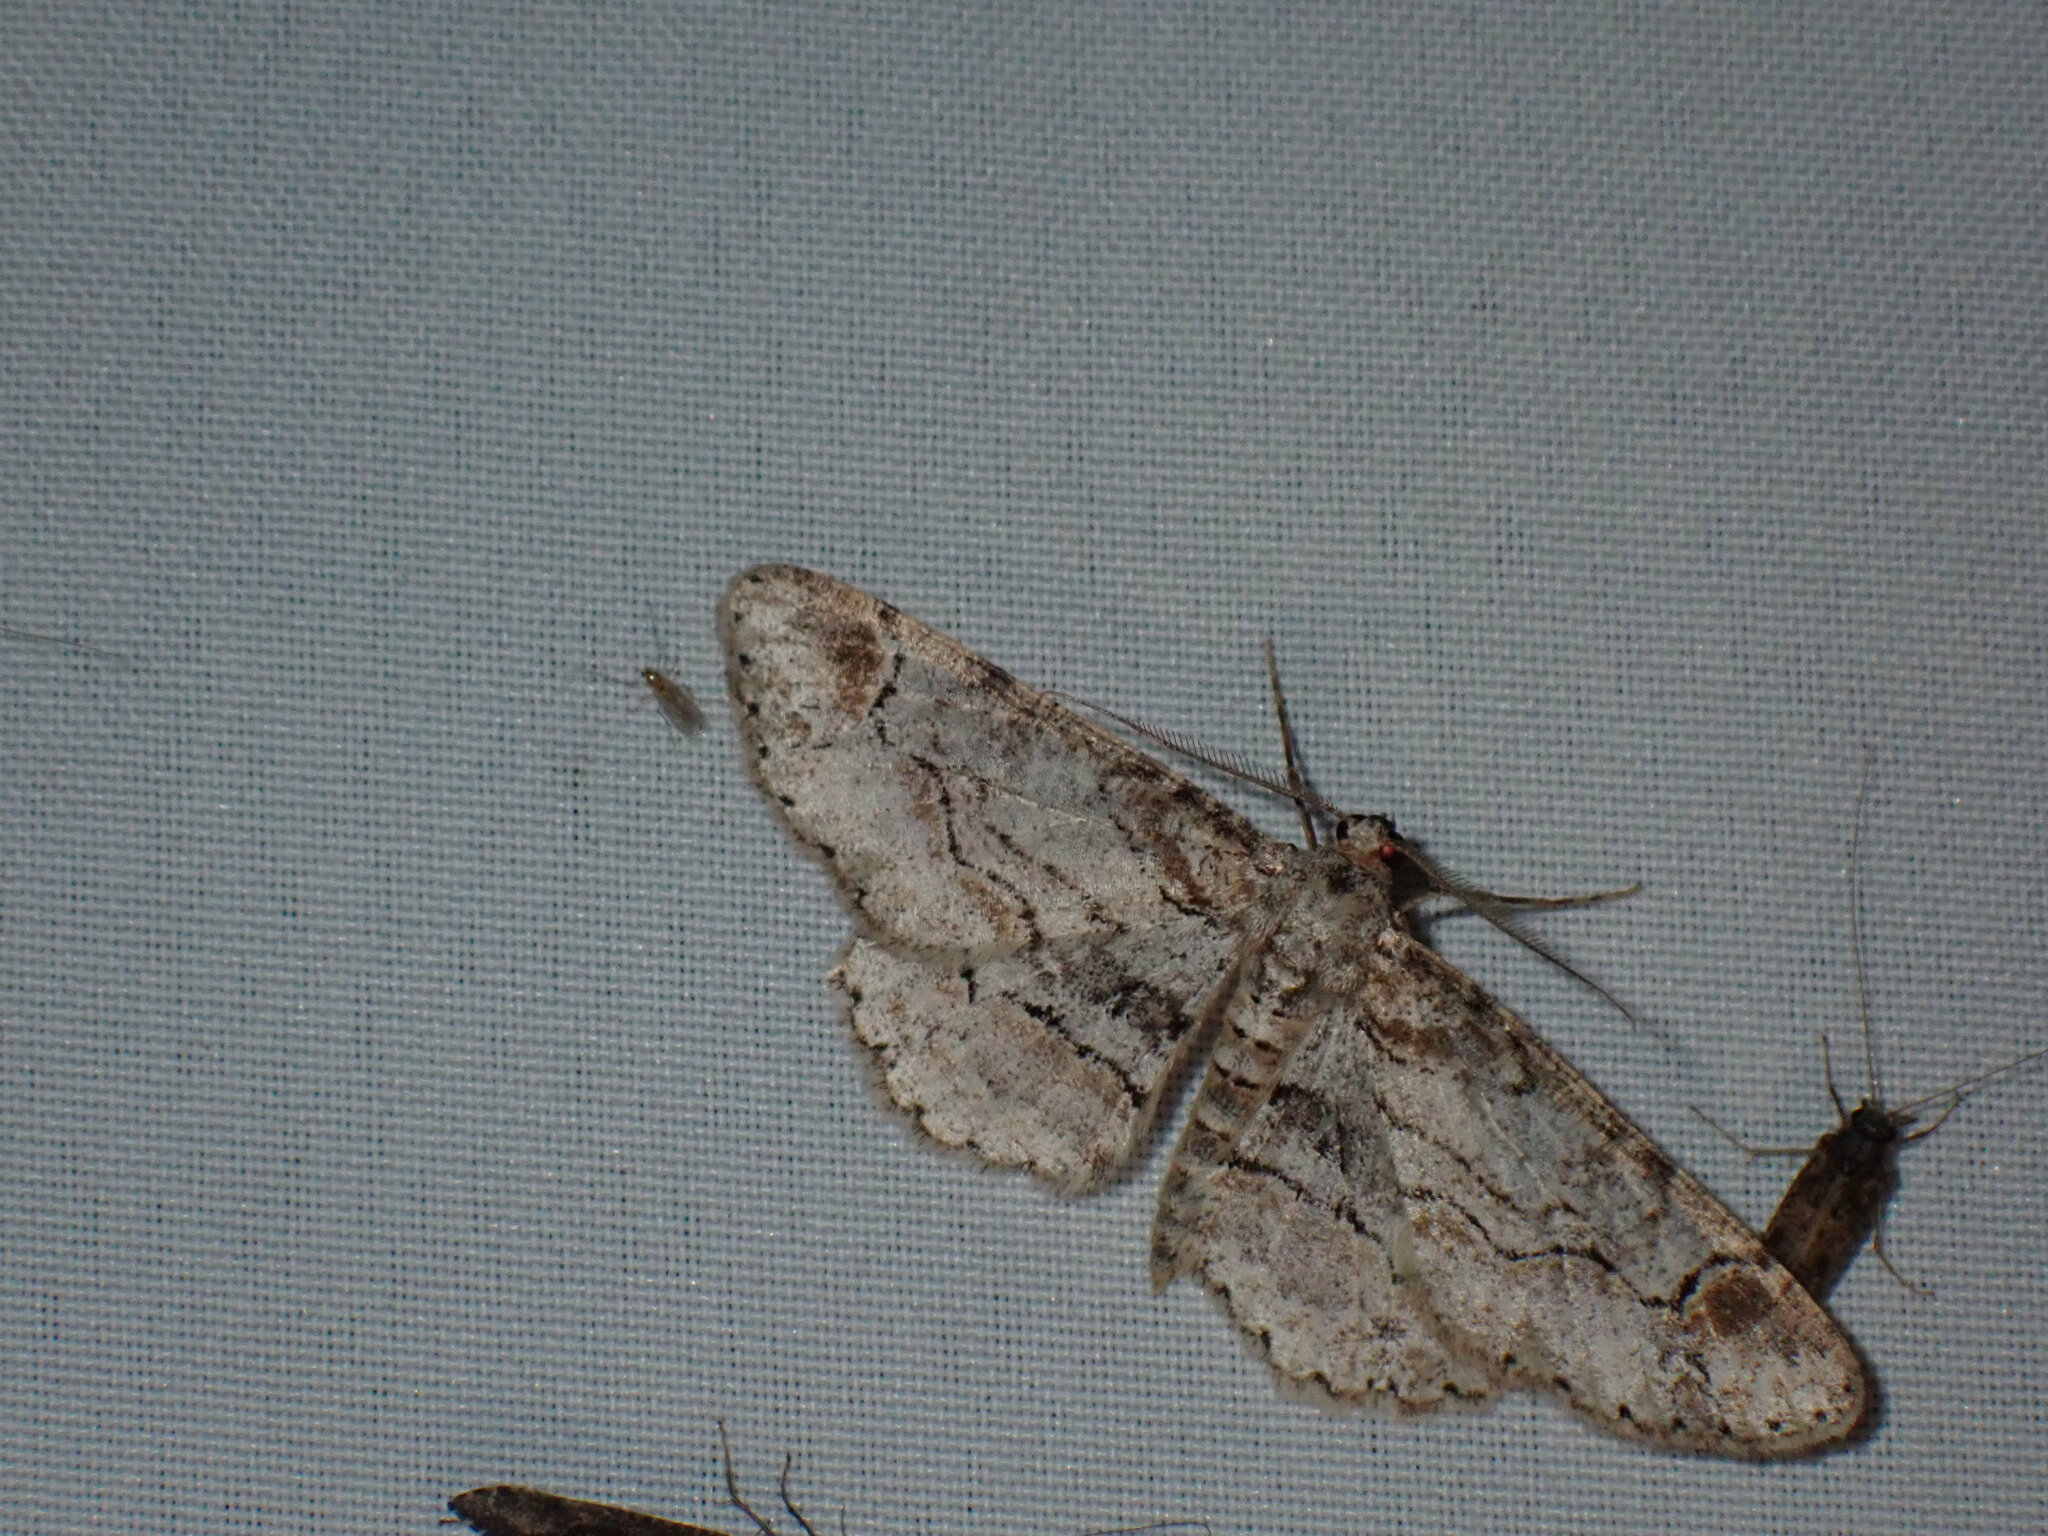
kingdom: Animalia
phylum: Arthropoda
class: Insecta
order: Lepidoptera
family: Geometridae
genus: Iridopsis
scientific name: Iridopsis emasculatum
